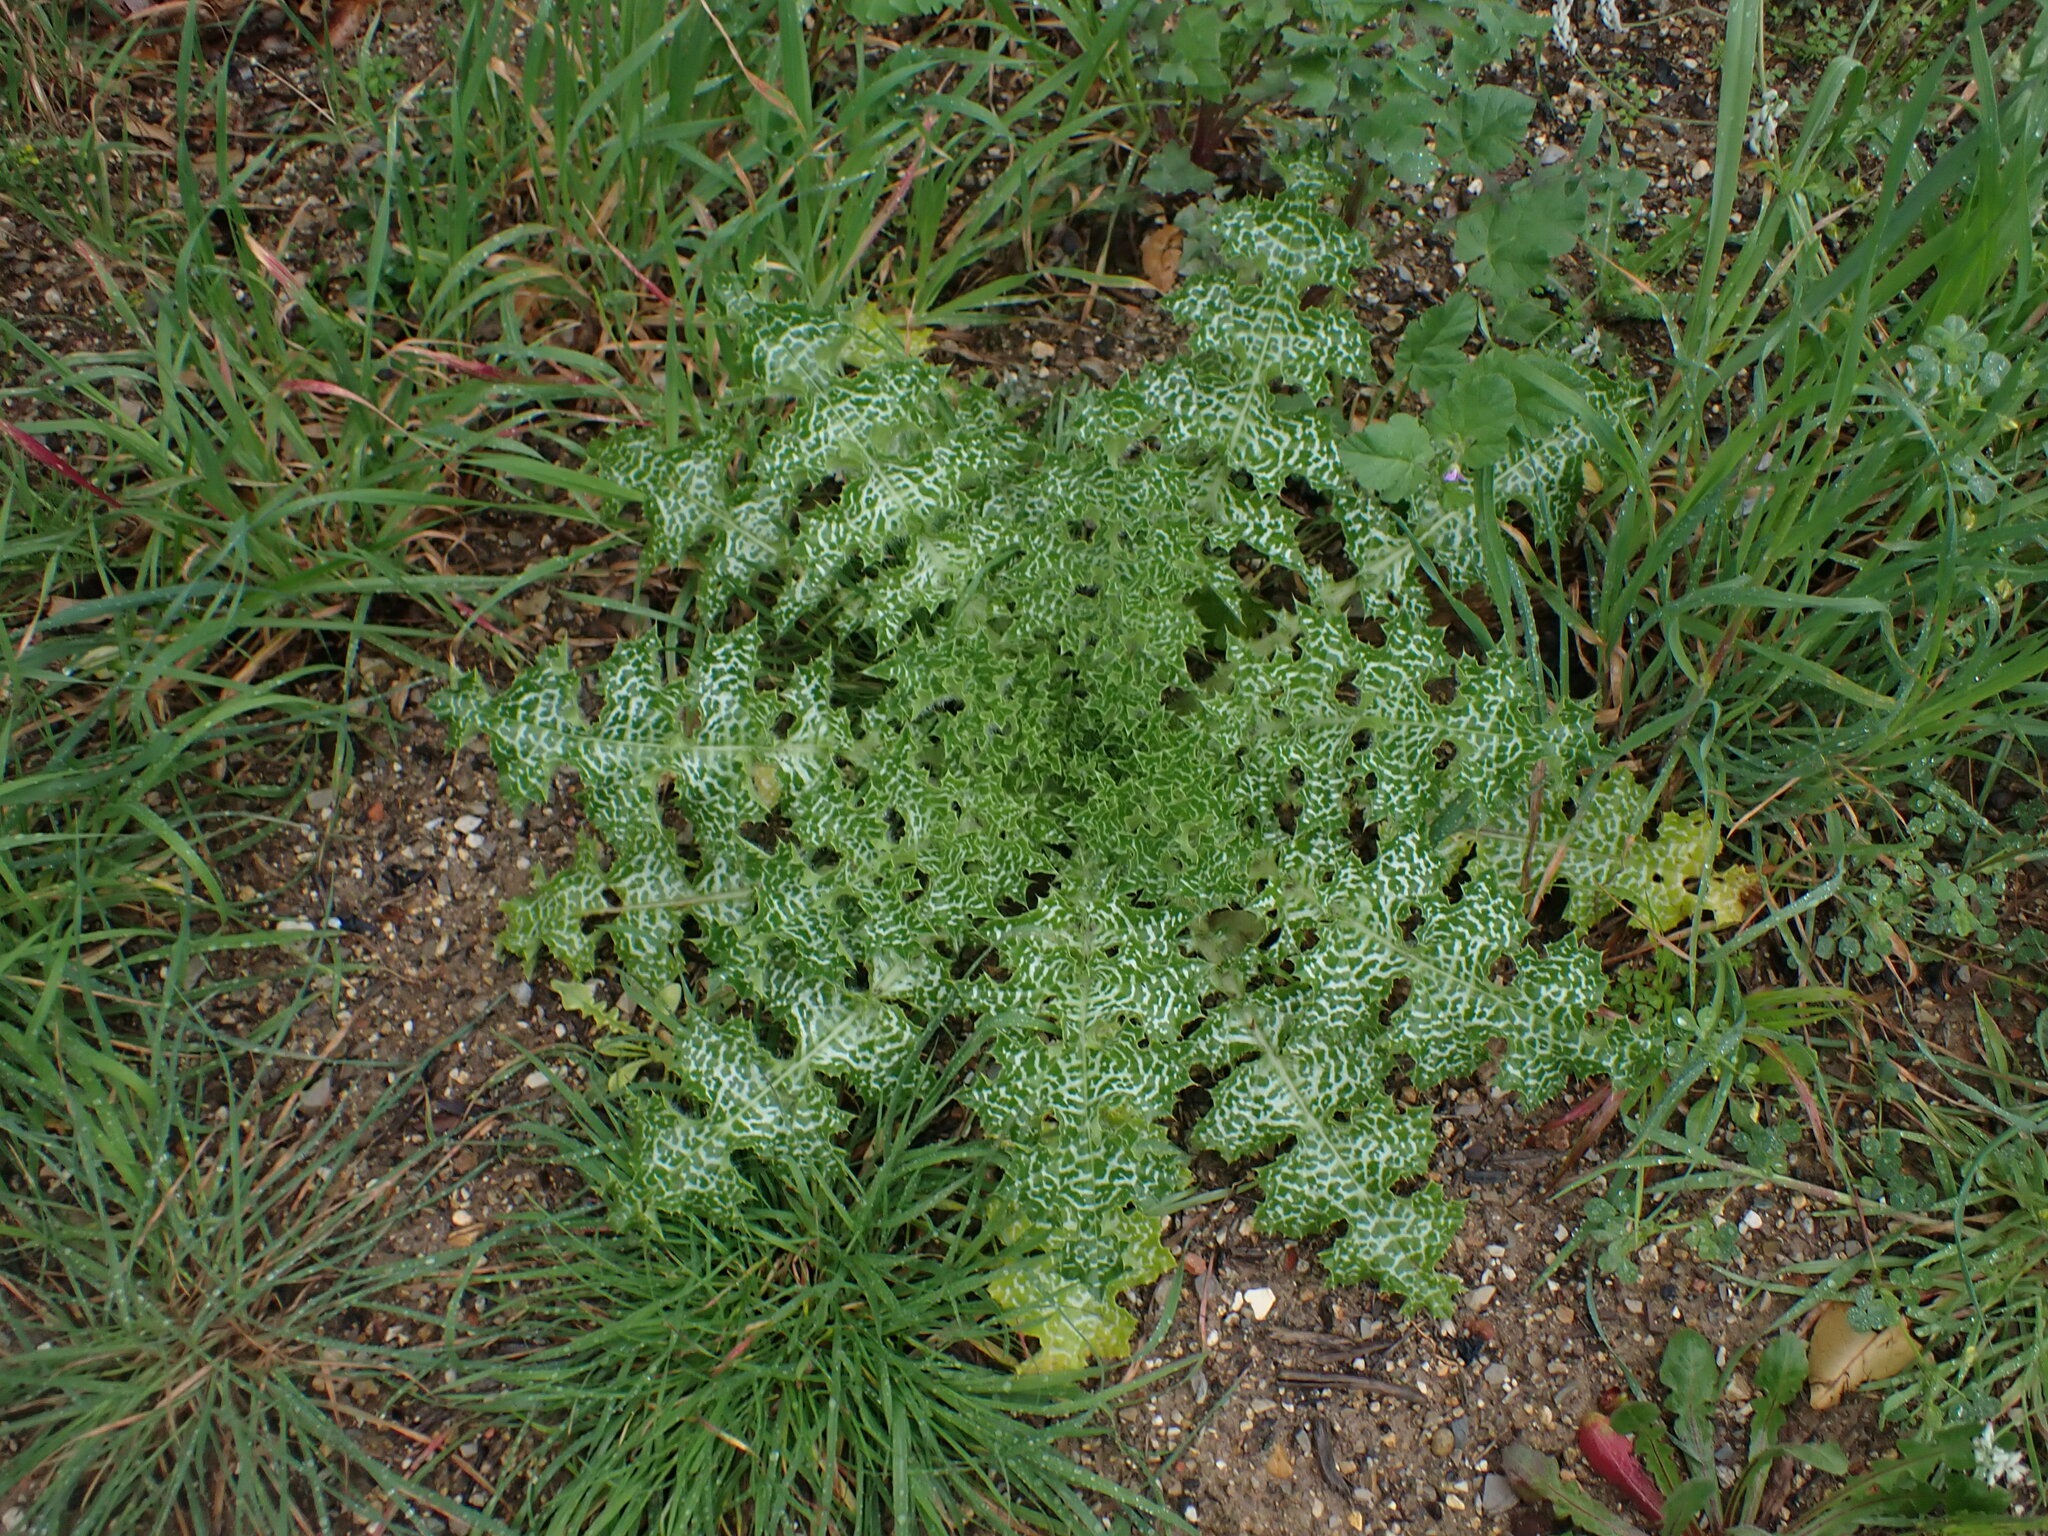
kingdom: Plantae
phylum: Tracheophyta
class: Magnoliopsida
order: Asterales
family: Asteraceae
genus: Silybum
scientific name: Silybum marianum
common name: Milk thistle
